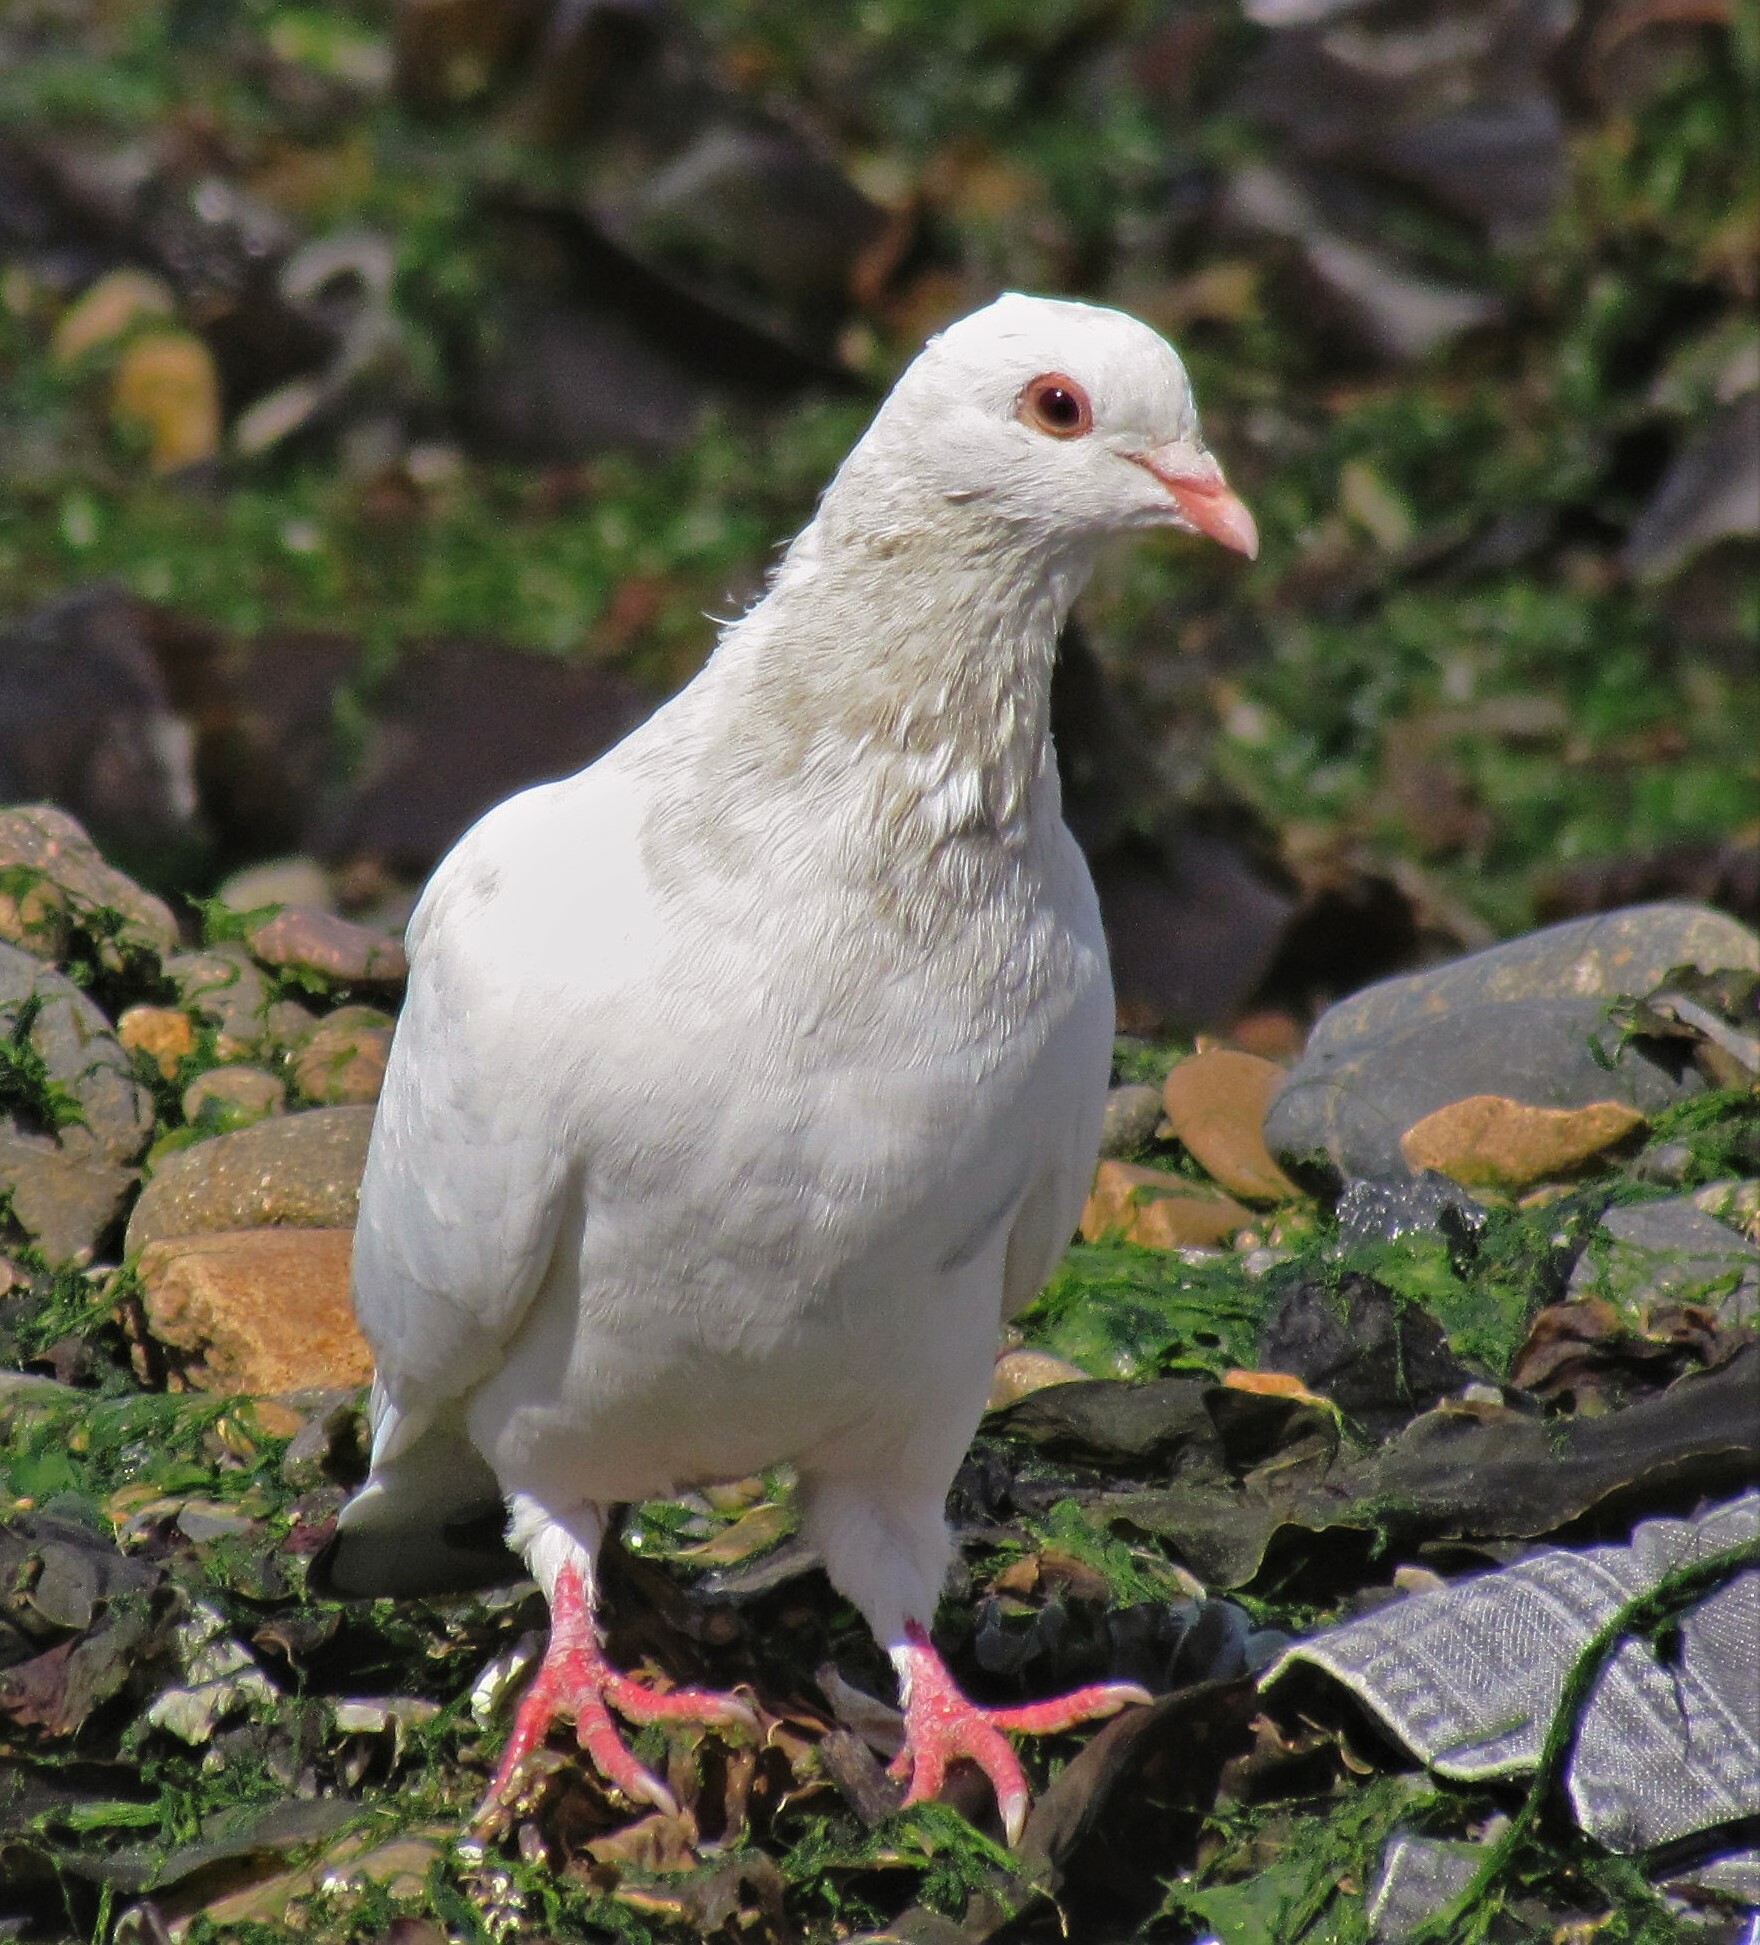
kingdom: Animalia
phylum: Chordata
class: Aves
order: Columbiformes
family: Columbidae
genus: Columba
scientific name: Columba livia
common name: Rock pigeon
